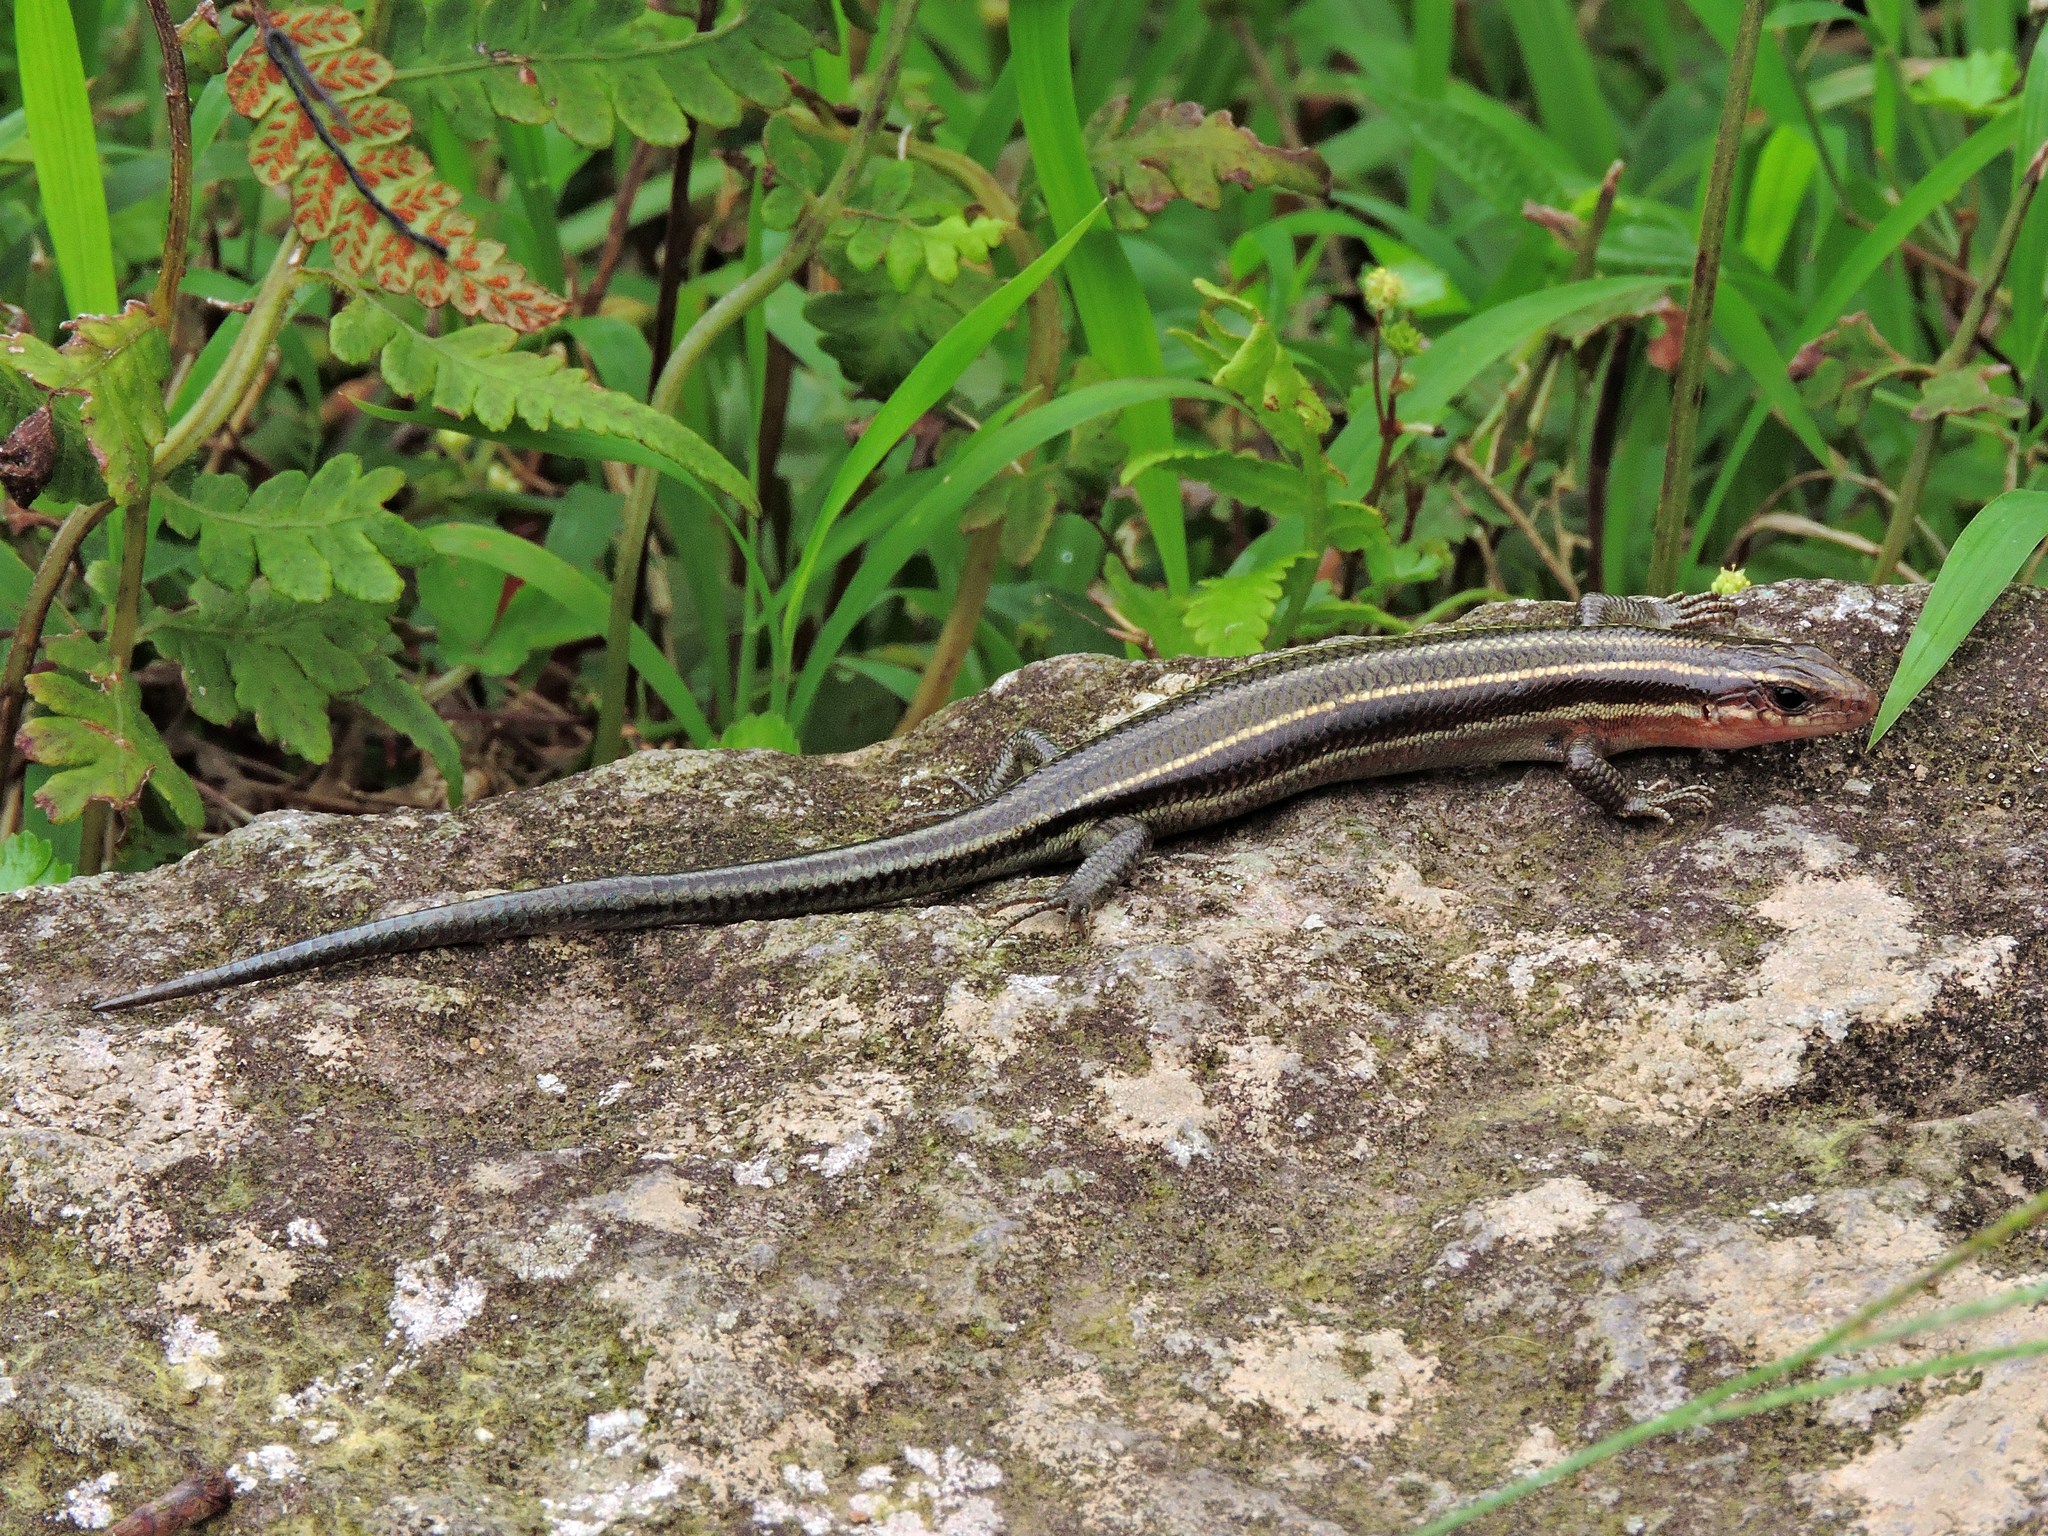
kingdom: Animalia
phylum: Chordata
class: Squamata
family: Scincidae
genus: Plestiodon
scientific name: Plestiodon elegans
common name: Shanghai elegant skink
